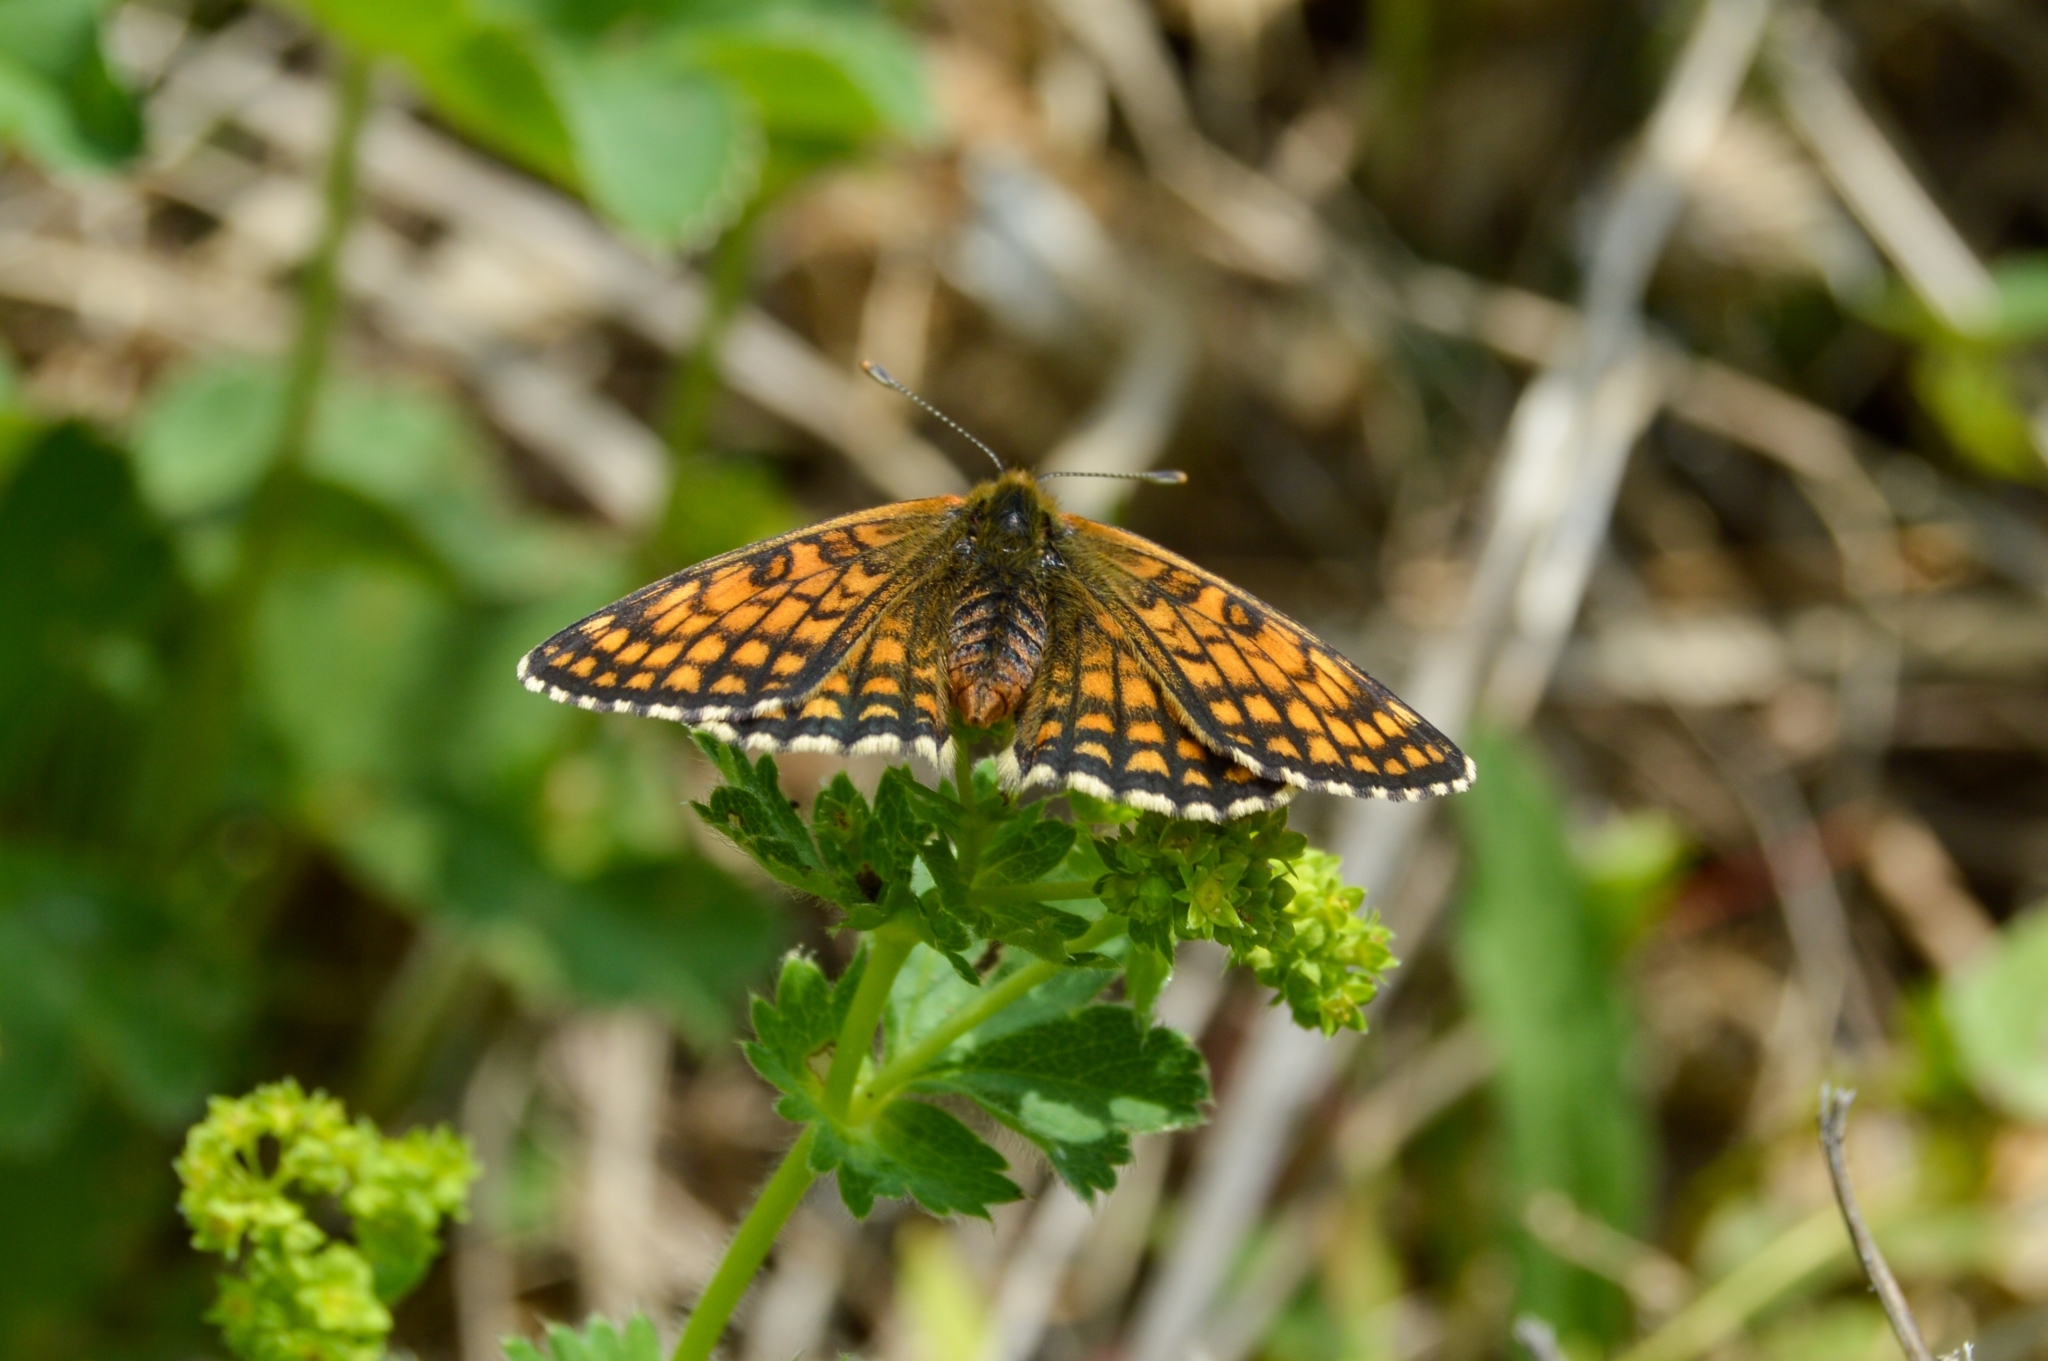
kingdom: Animalia
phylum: Arthropoda
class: Insecta
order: Lepidoptera
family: Nymphalidae
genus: Melitaea
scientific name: Melitaea athalia
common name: Heath fritillary
